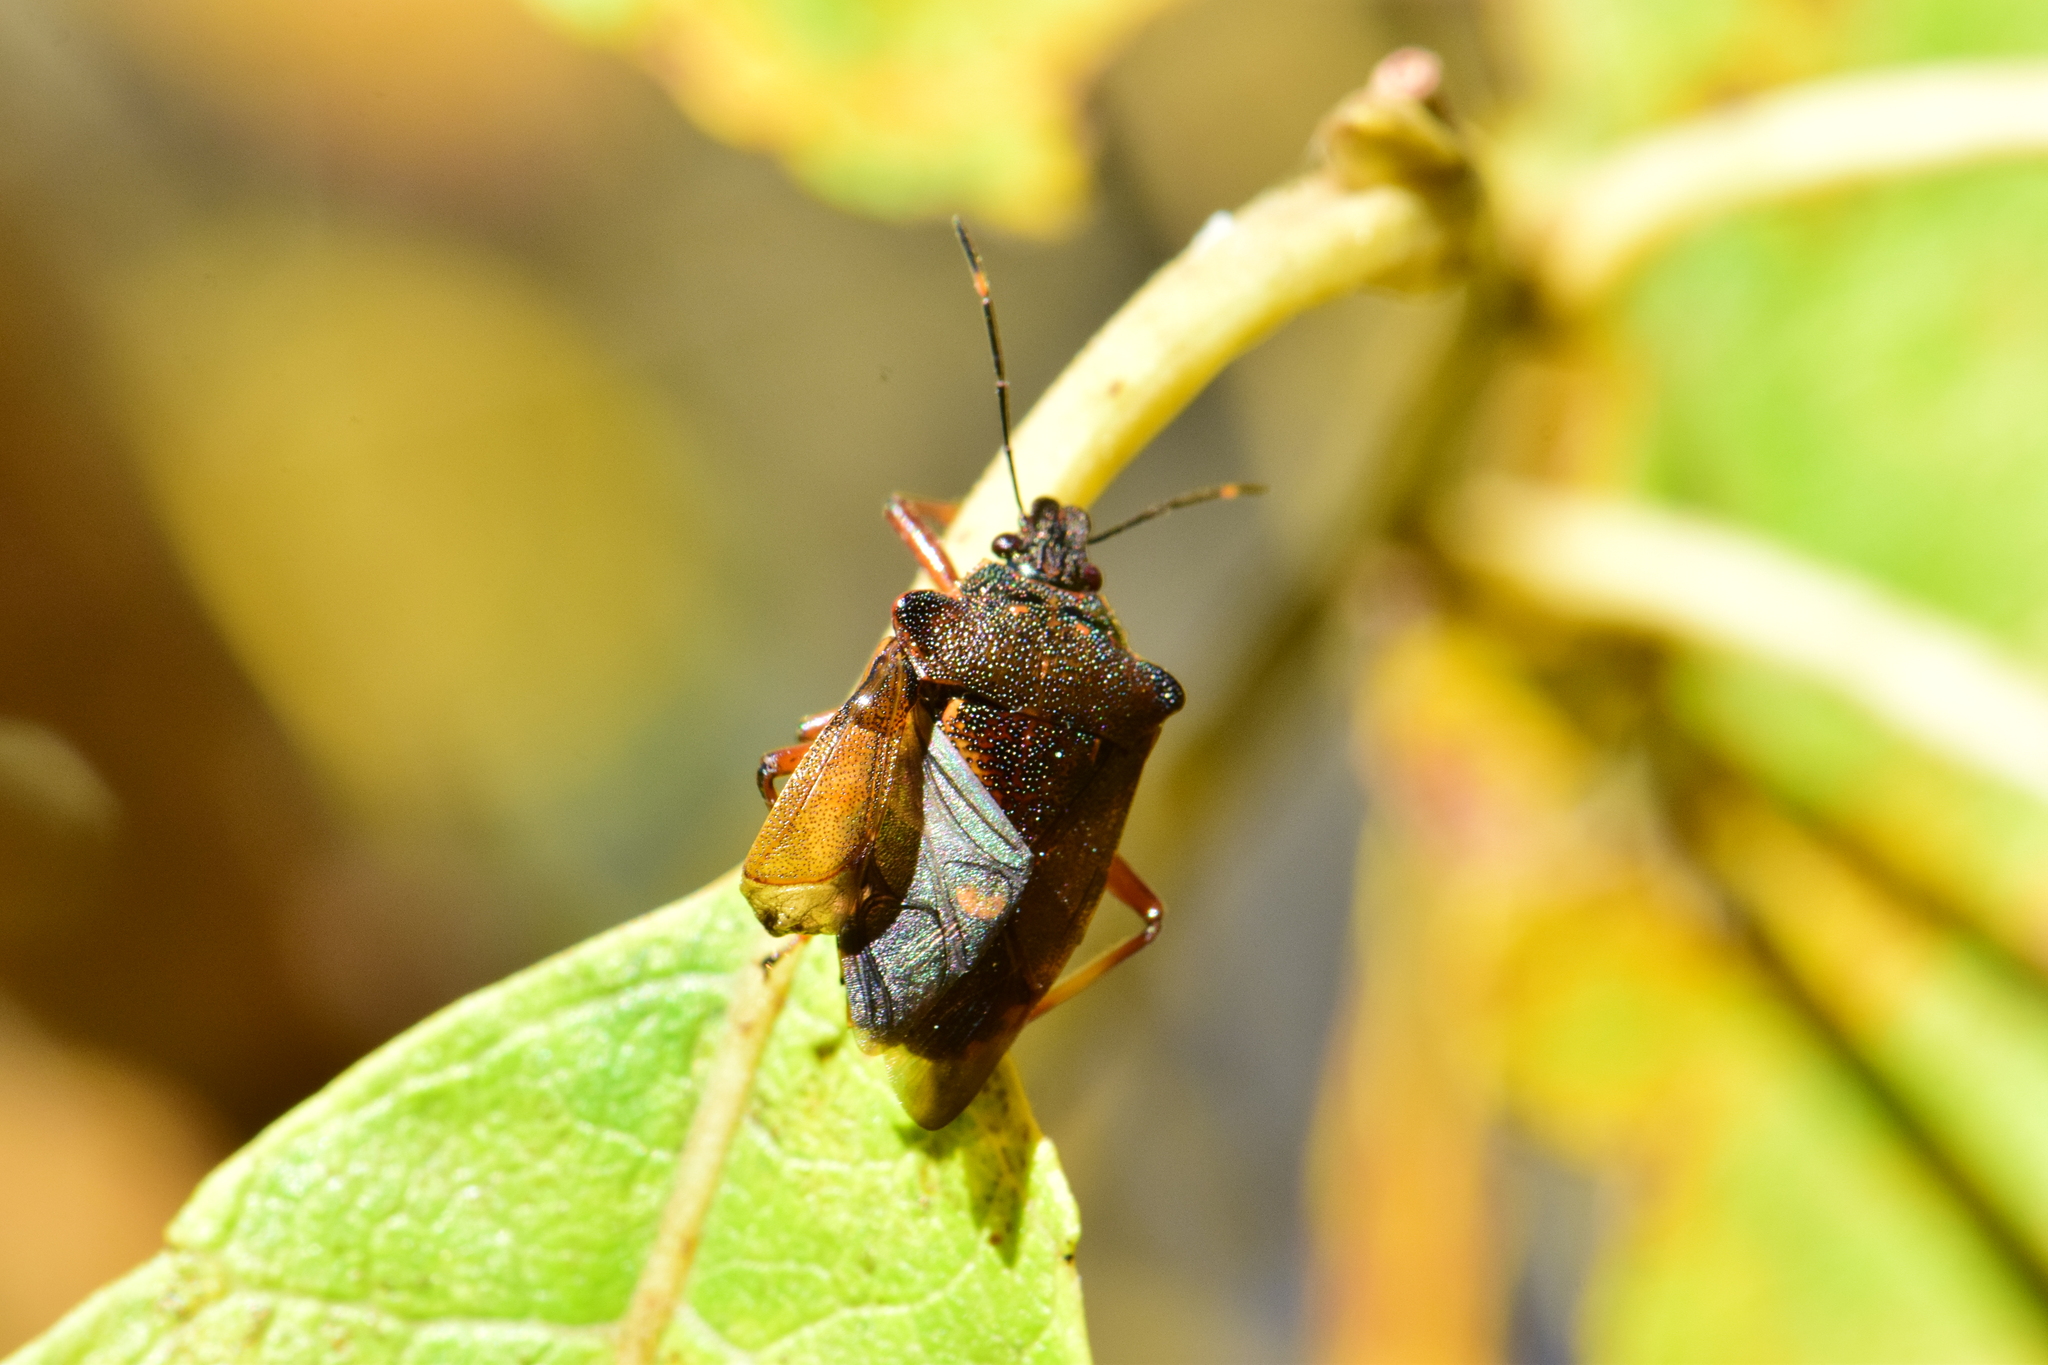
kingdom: Animalia
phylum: Arthropoda
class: Insecta
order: Hemiptera
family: Pentatomidae
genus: Pinthaeus
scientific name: Pinthaeus sanguinipes
